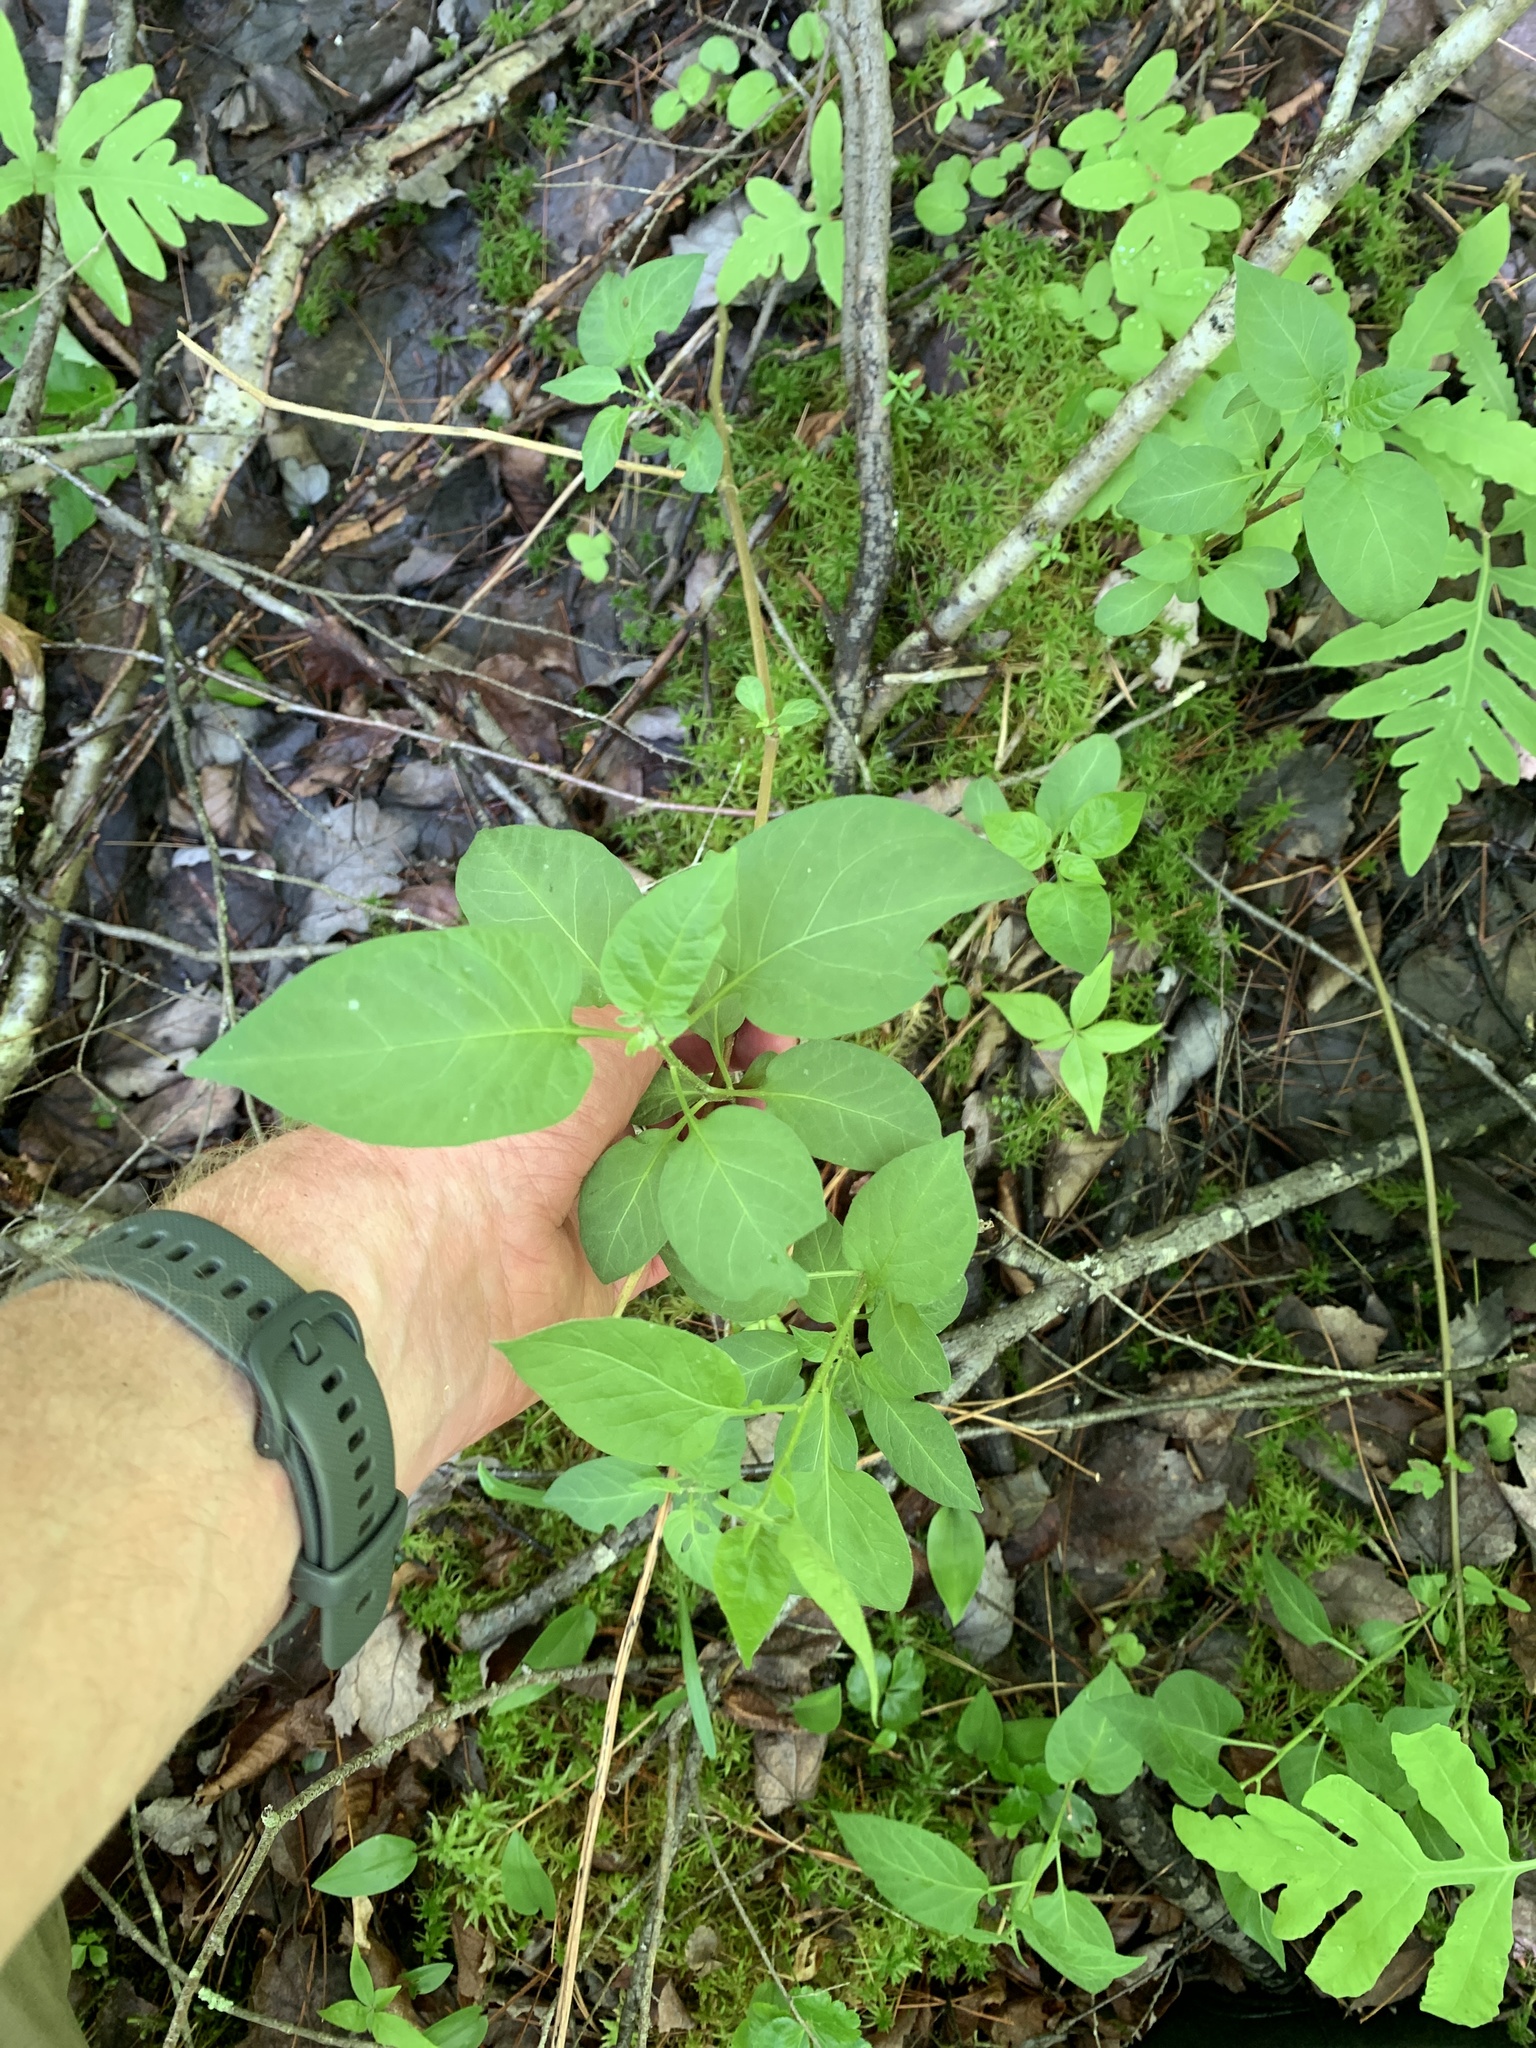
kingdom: Plantae
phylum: Tracheophyta
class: Magnoliopsida
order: Solanales
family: Solanaceae
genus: Solanum
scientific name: Solanum dulcamara
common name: Climbing nightshade
